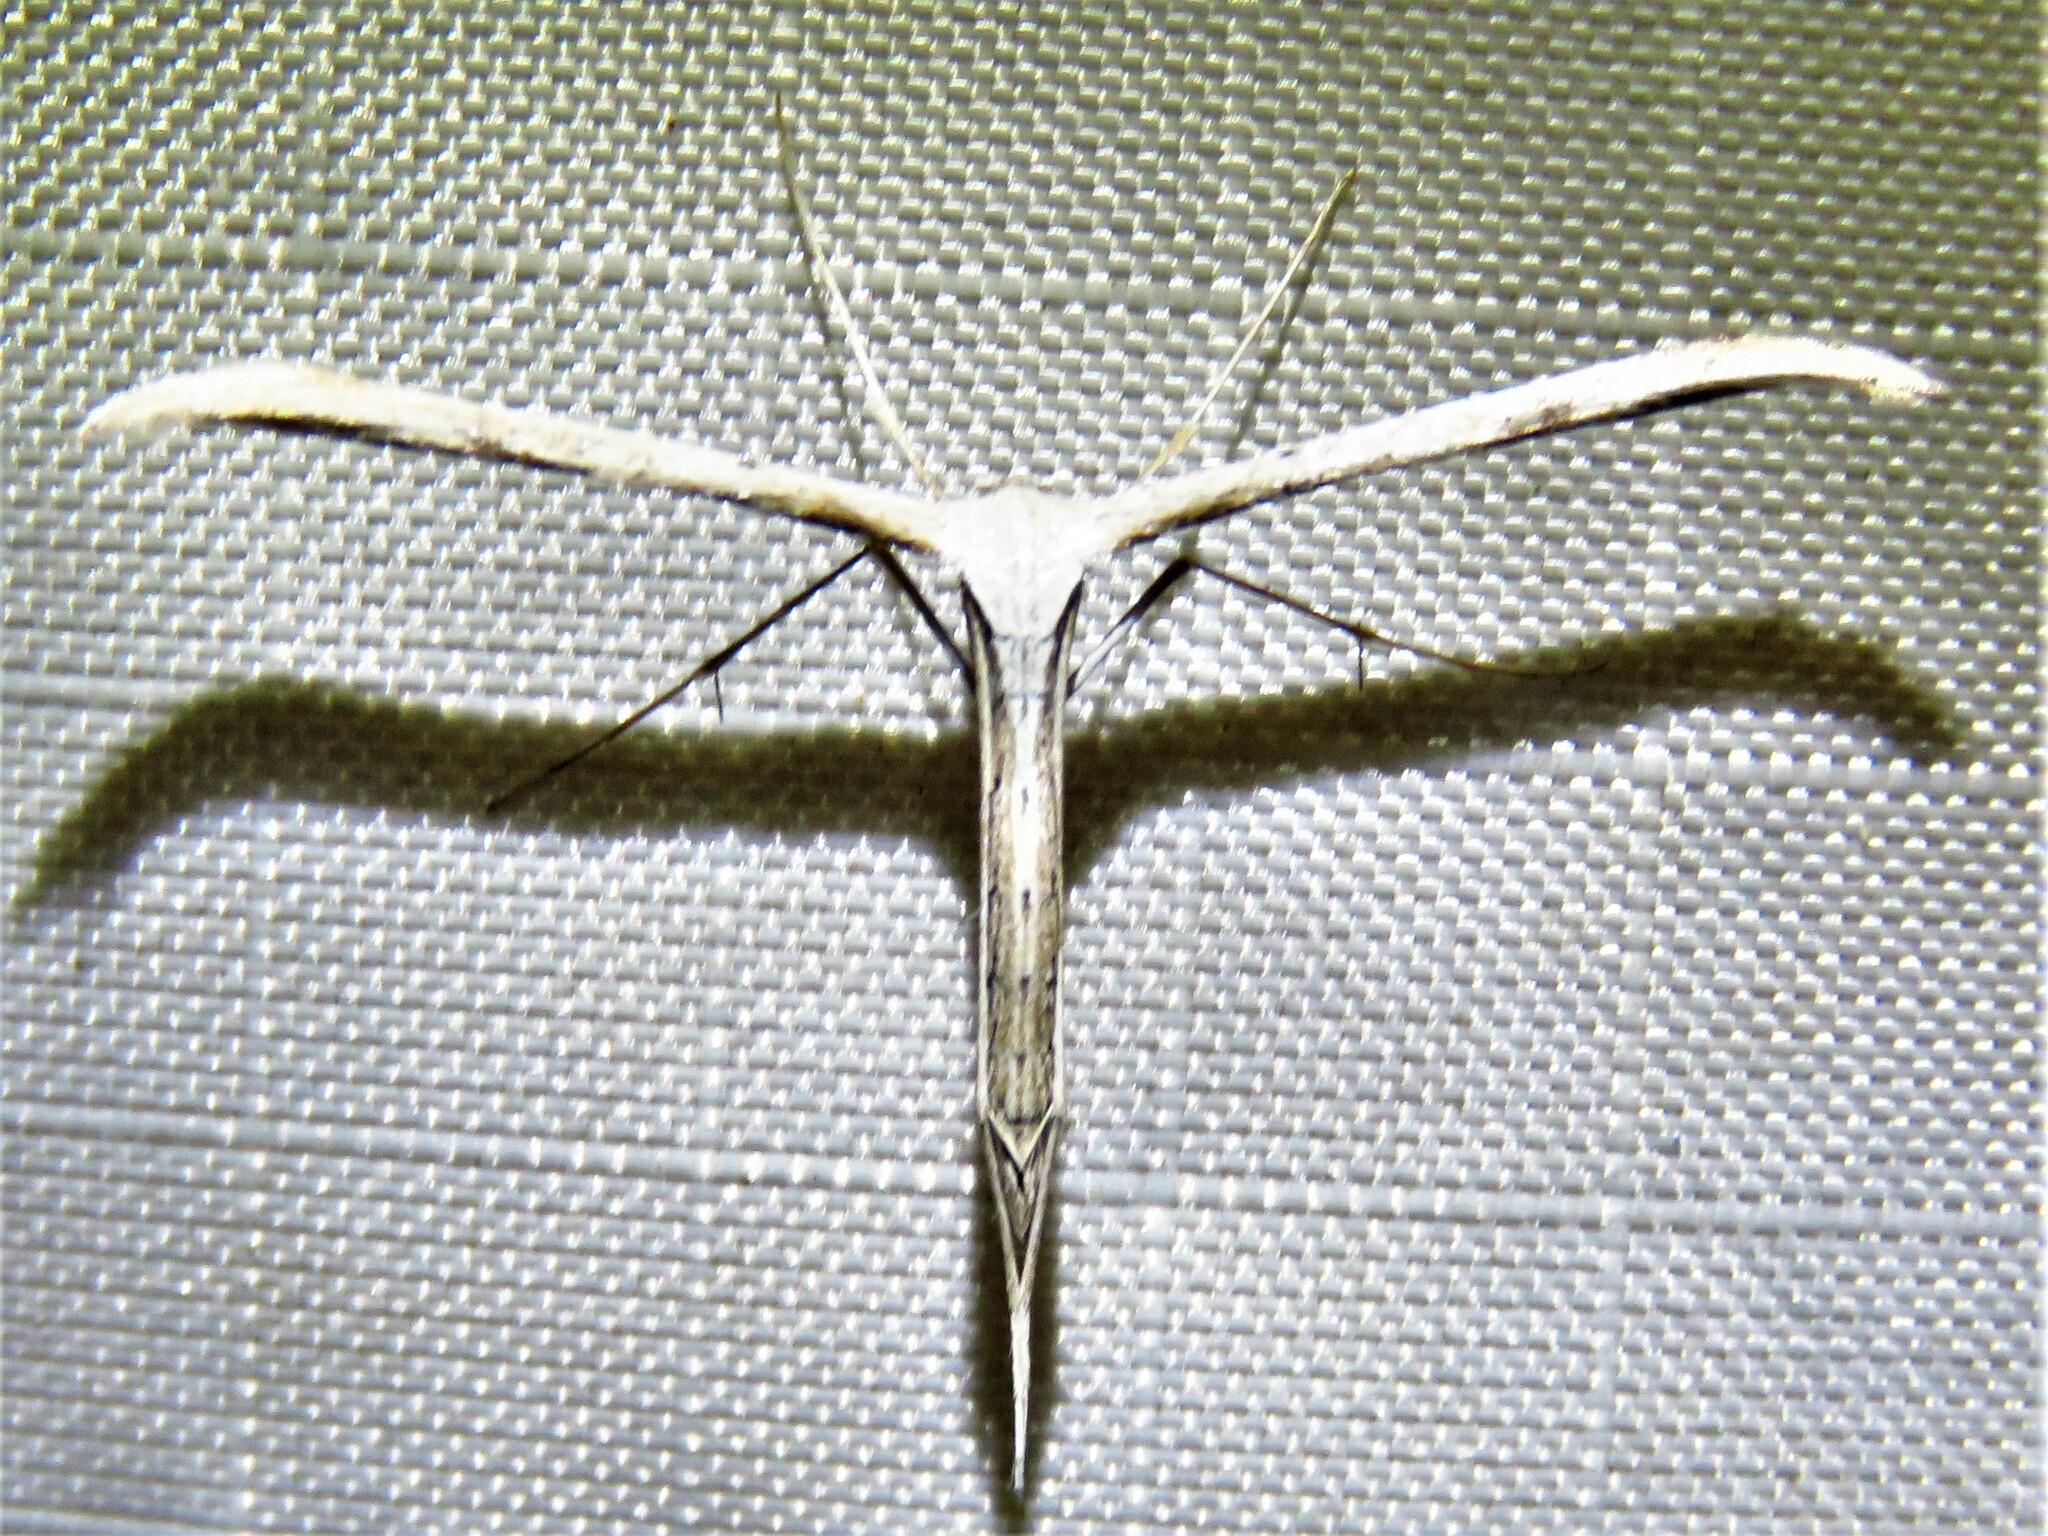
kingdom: Animalia
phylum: Arthropoda
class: Insecta
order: Lepidoptera
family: Pterophoridae
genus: Emmelina
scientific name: Emmelina monodactyla
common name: Common plume
